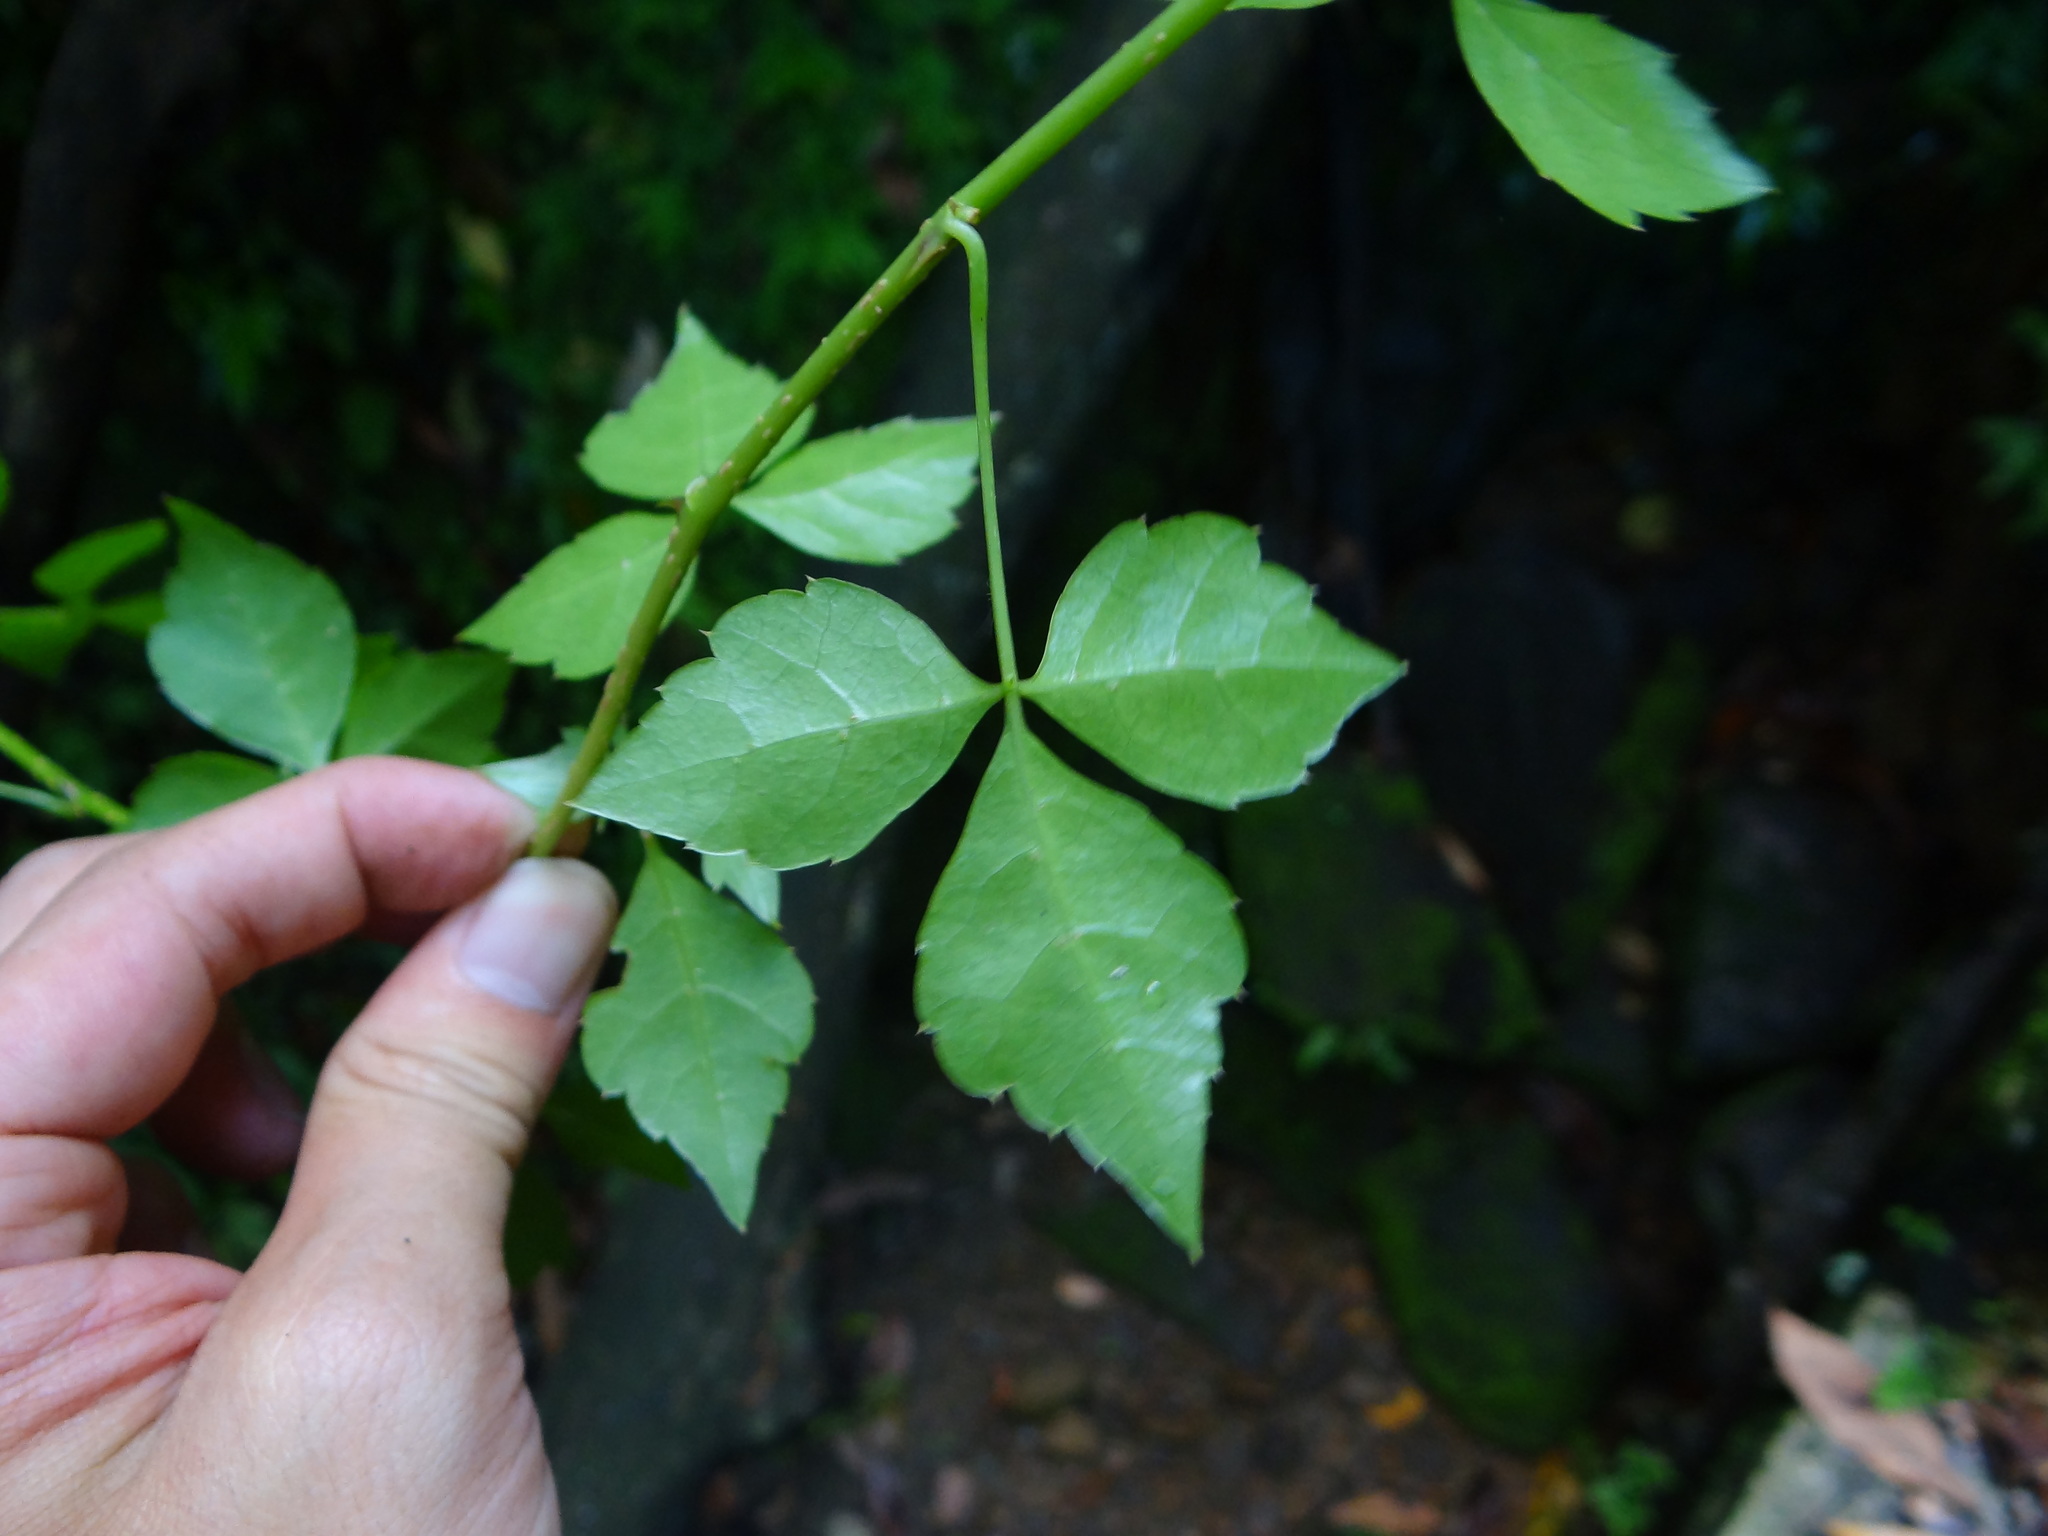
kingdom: Plantae
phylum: Tracheophyta
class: Magnoliopsida
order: Apiales
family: Araliaceae
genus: Eleutherococcus
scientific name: Eleutherococcus trifoliatus
